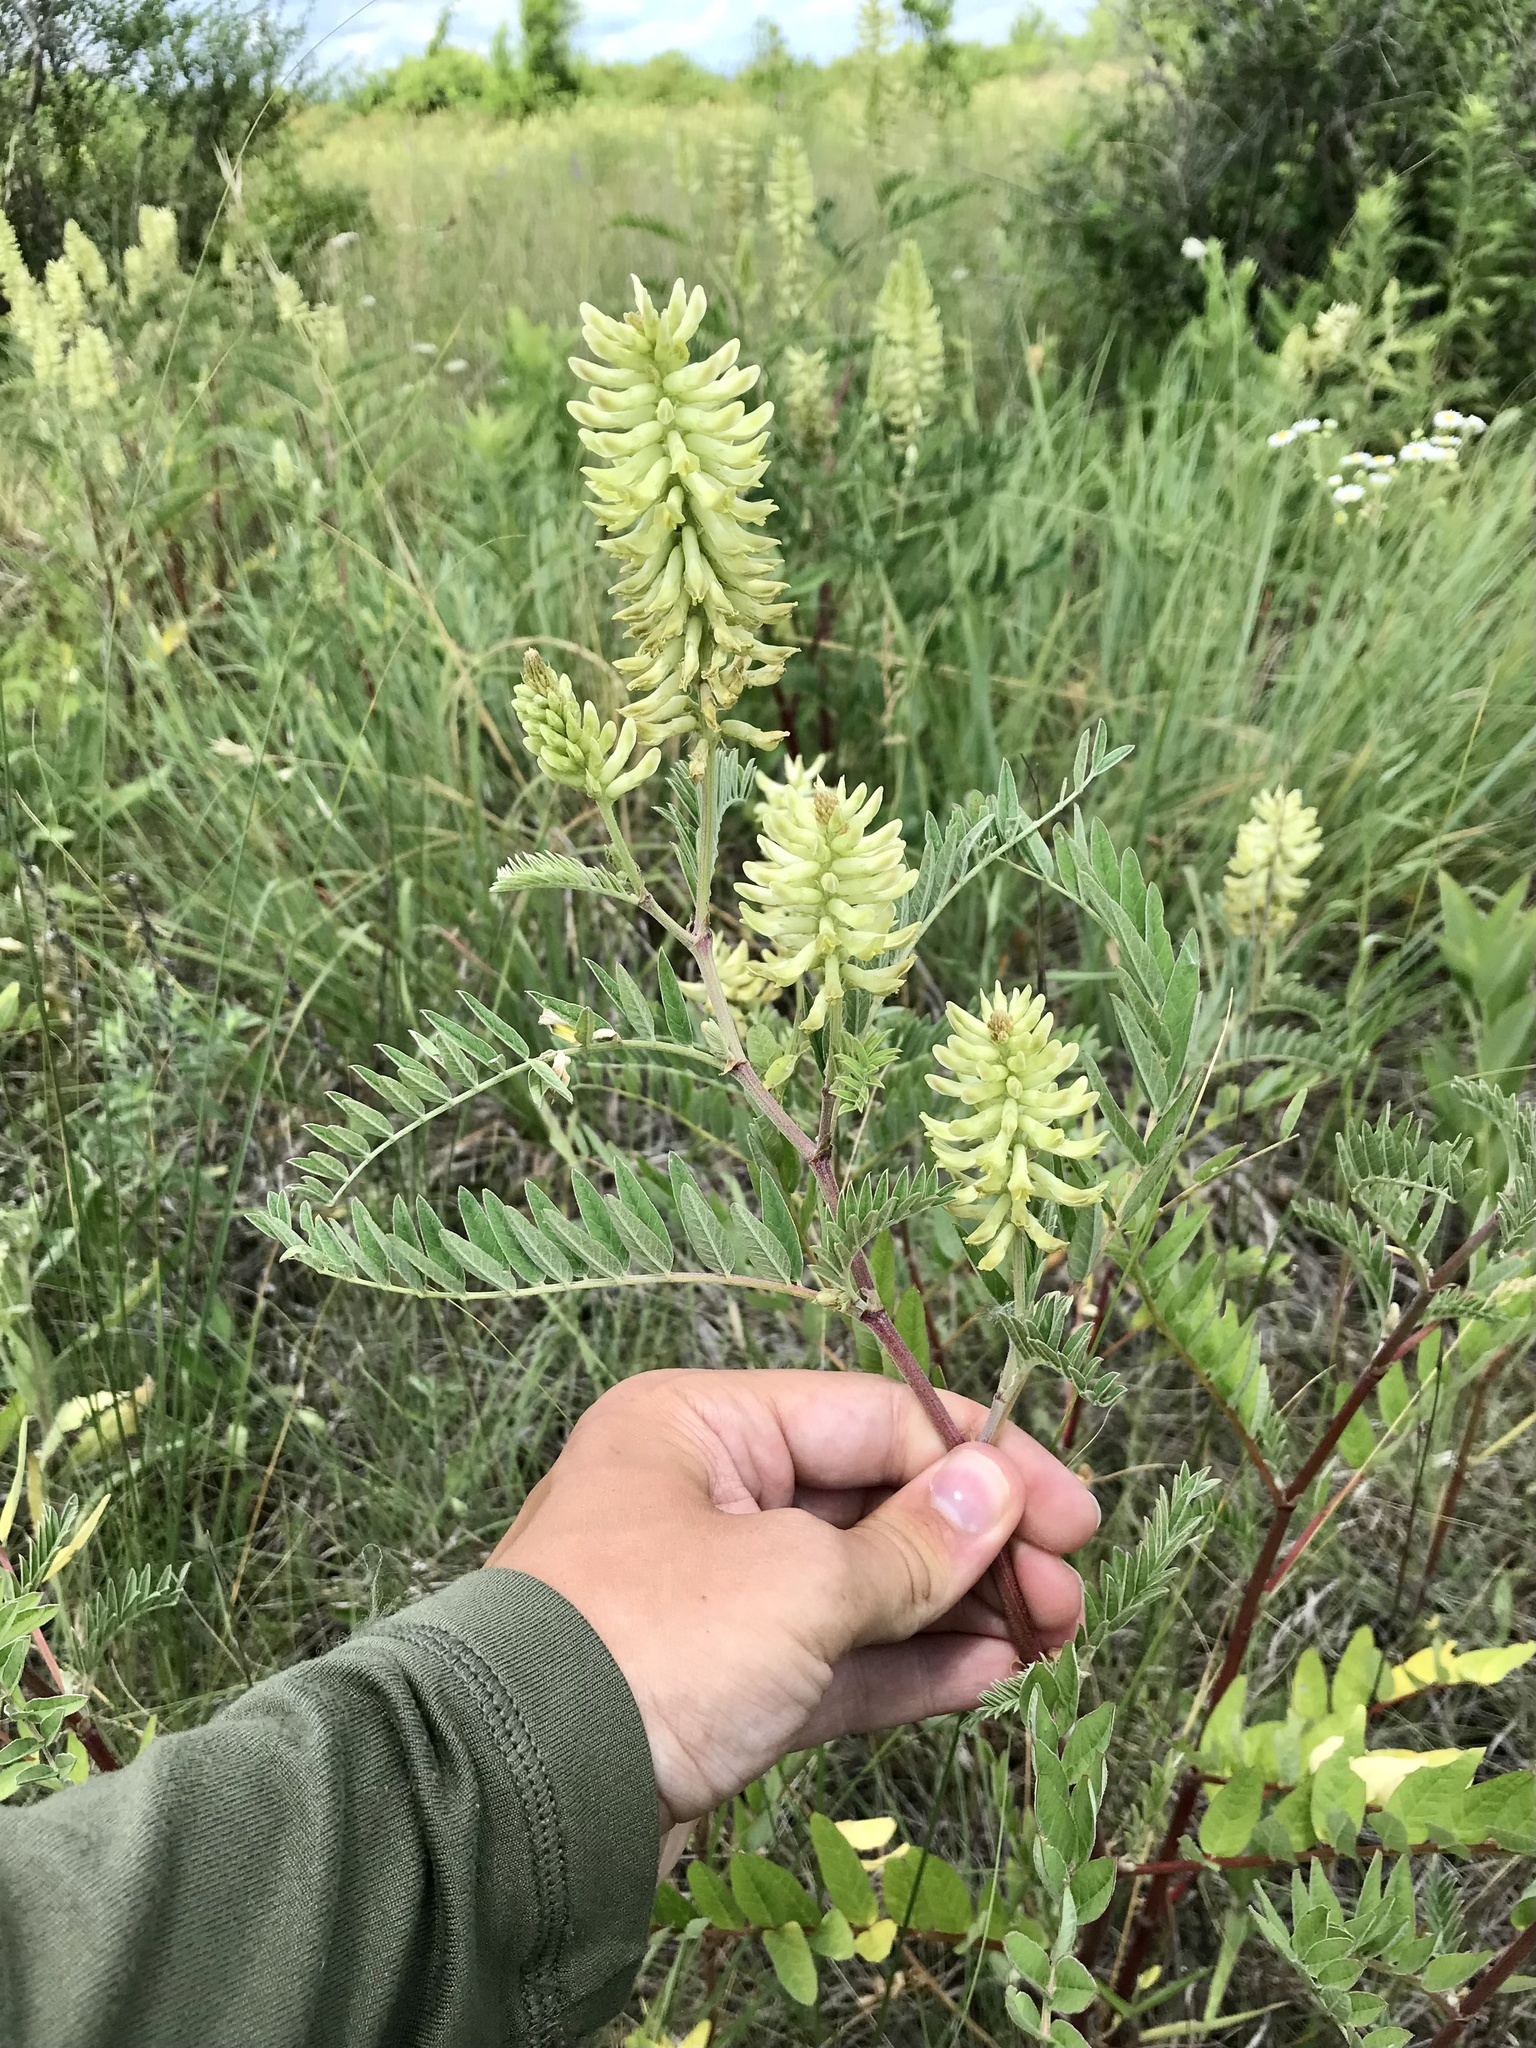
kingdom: Plantae
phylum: Tracheophyta
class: Magnoliopsida
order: Fabales
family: Fabaceae
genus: Astragalus
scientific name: Astragalus canadensis
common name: Canada milk-vetch
